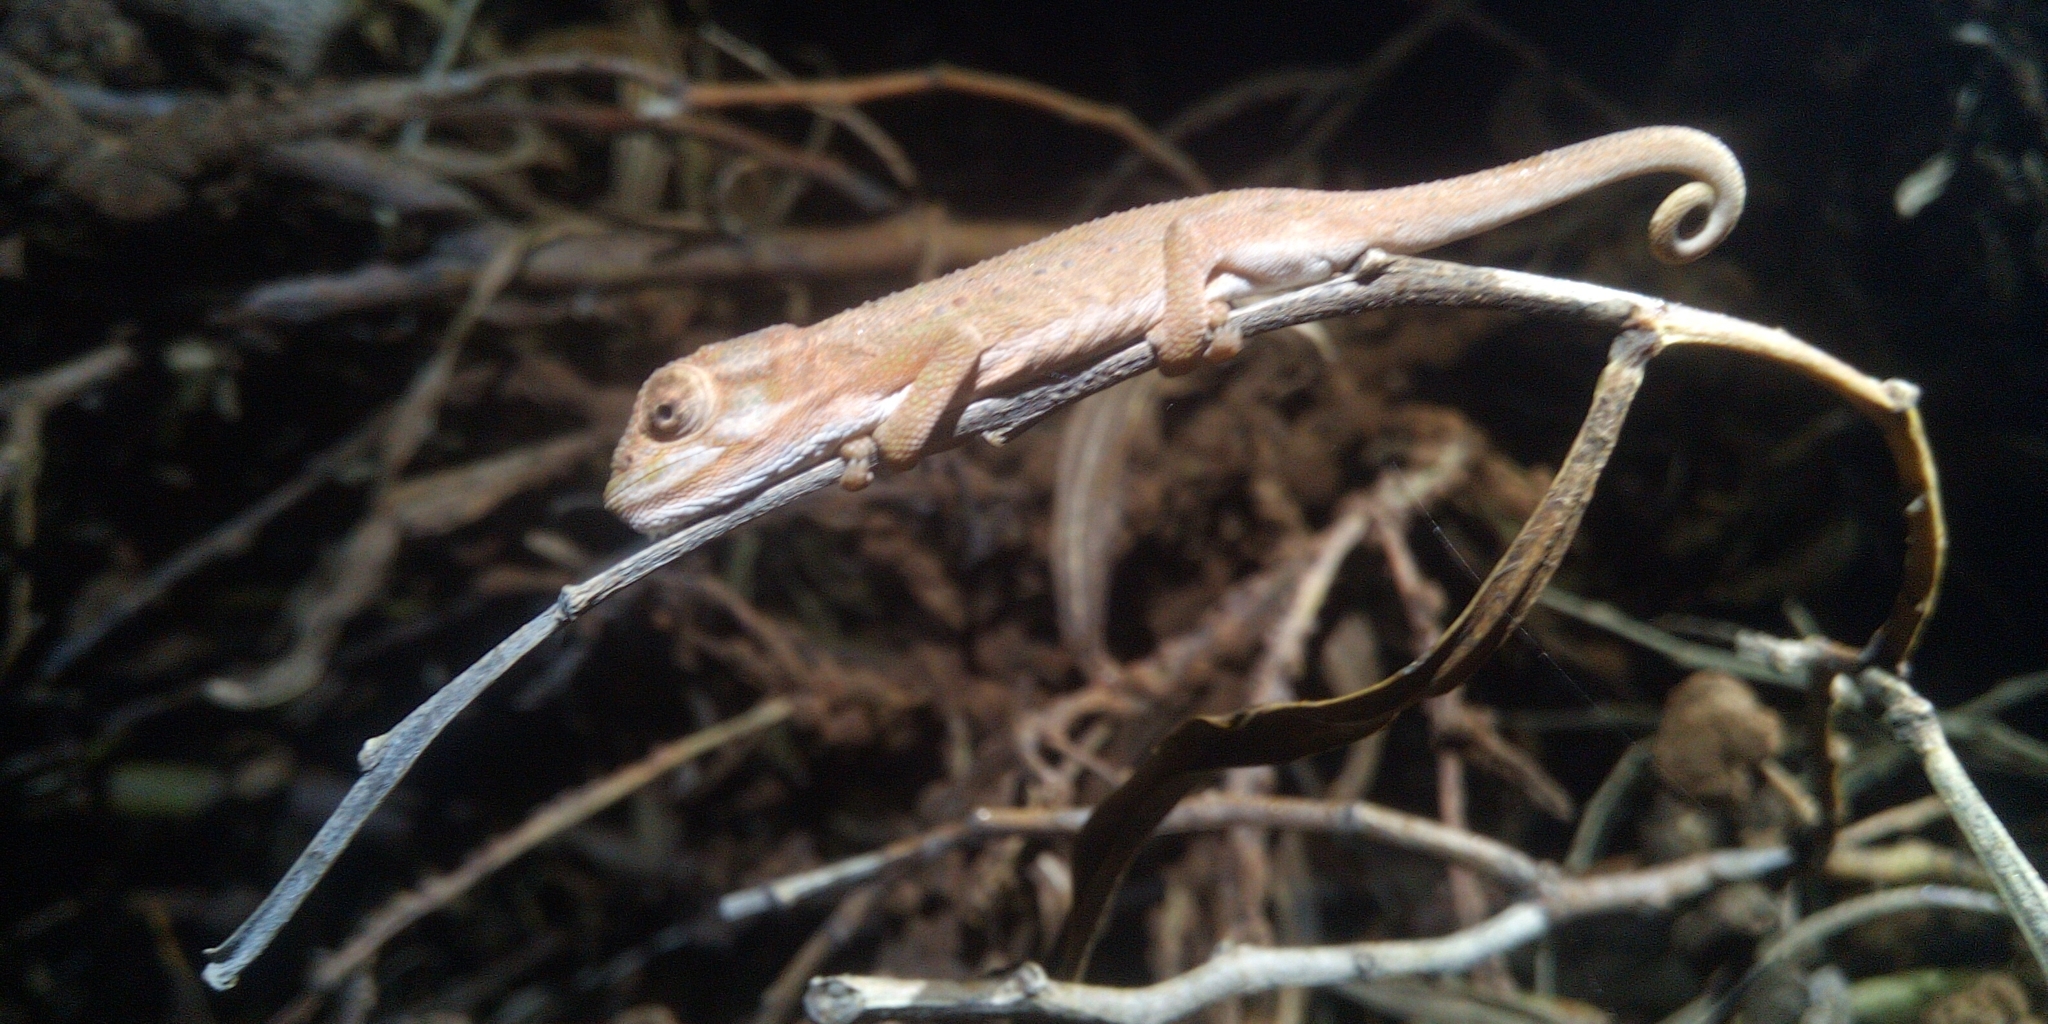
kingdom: Animalia
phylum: Chordata
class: Squamata
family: Chamaeleonidae
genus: Bradypodion
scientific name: Bradypodion pumilum
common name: Cape dwarf chameleon
